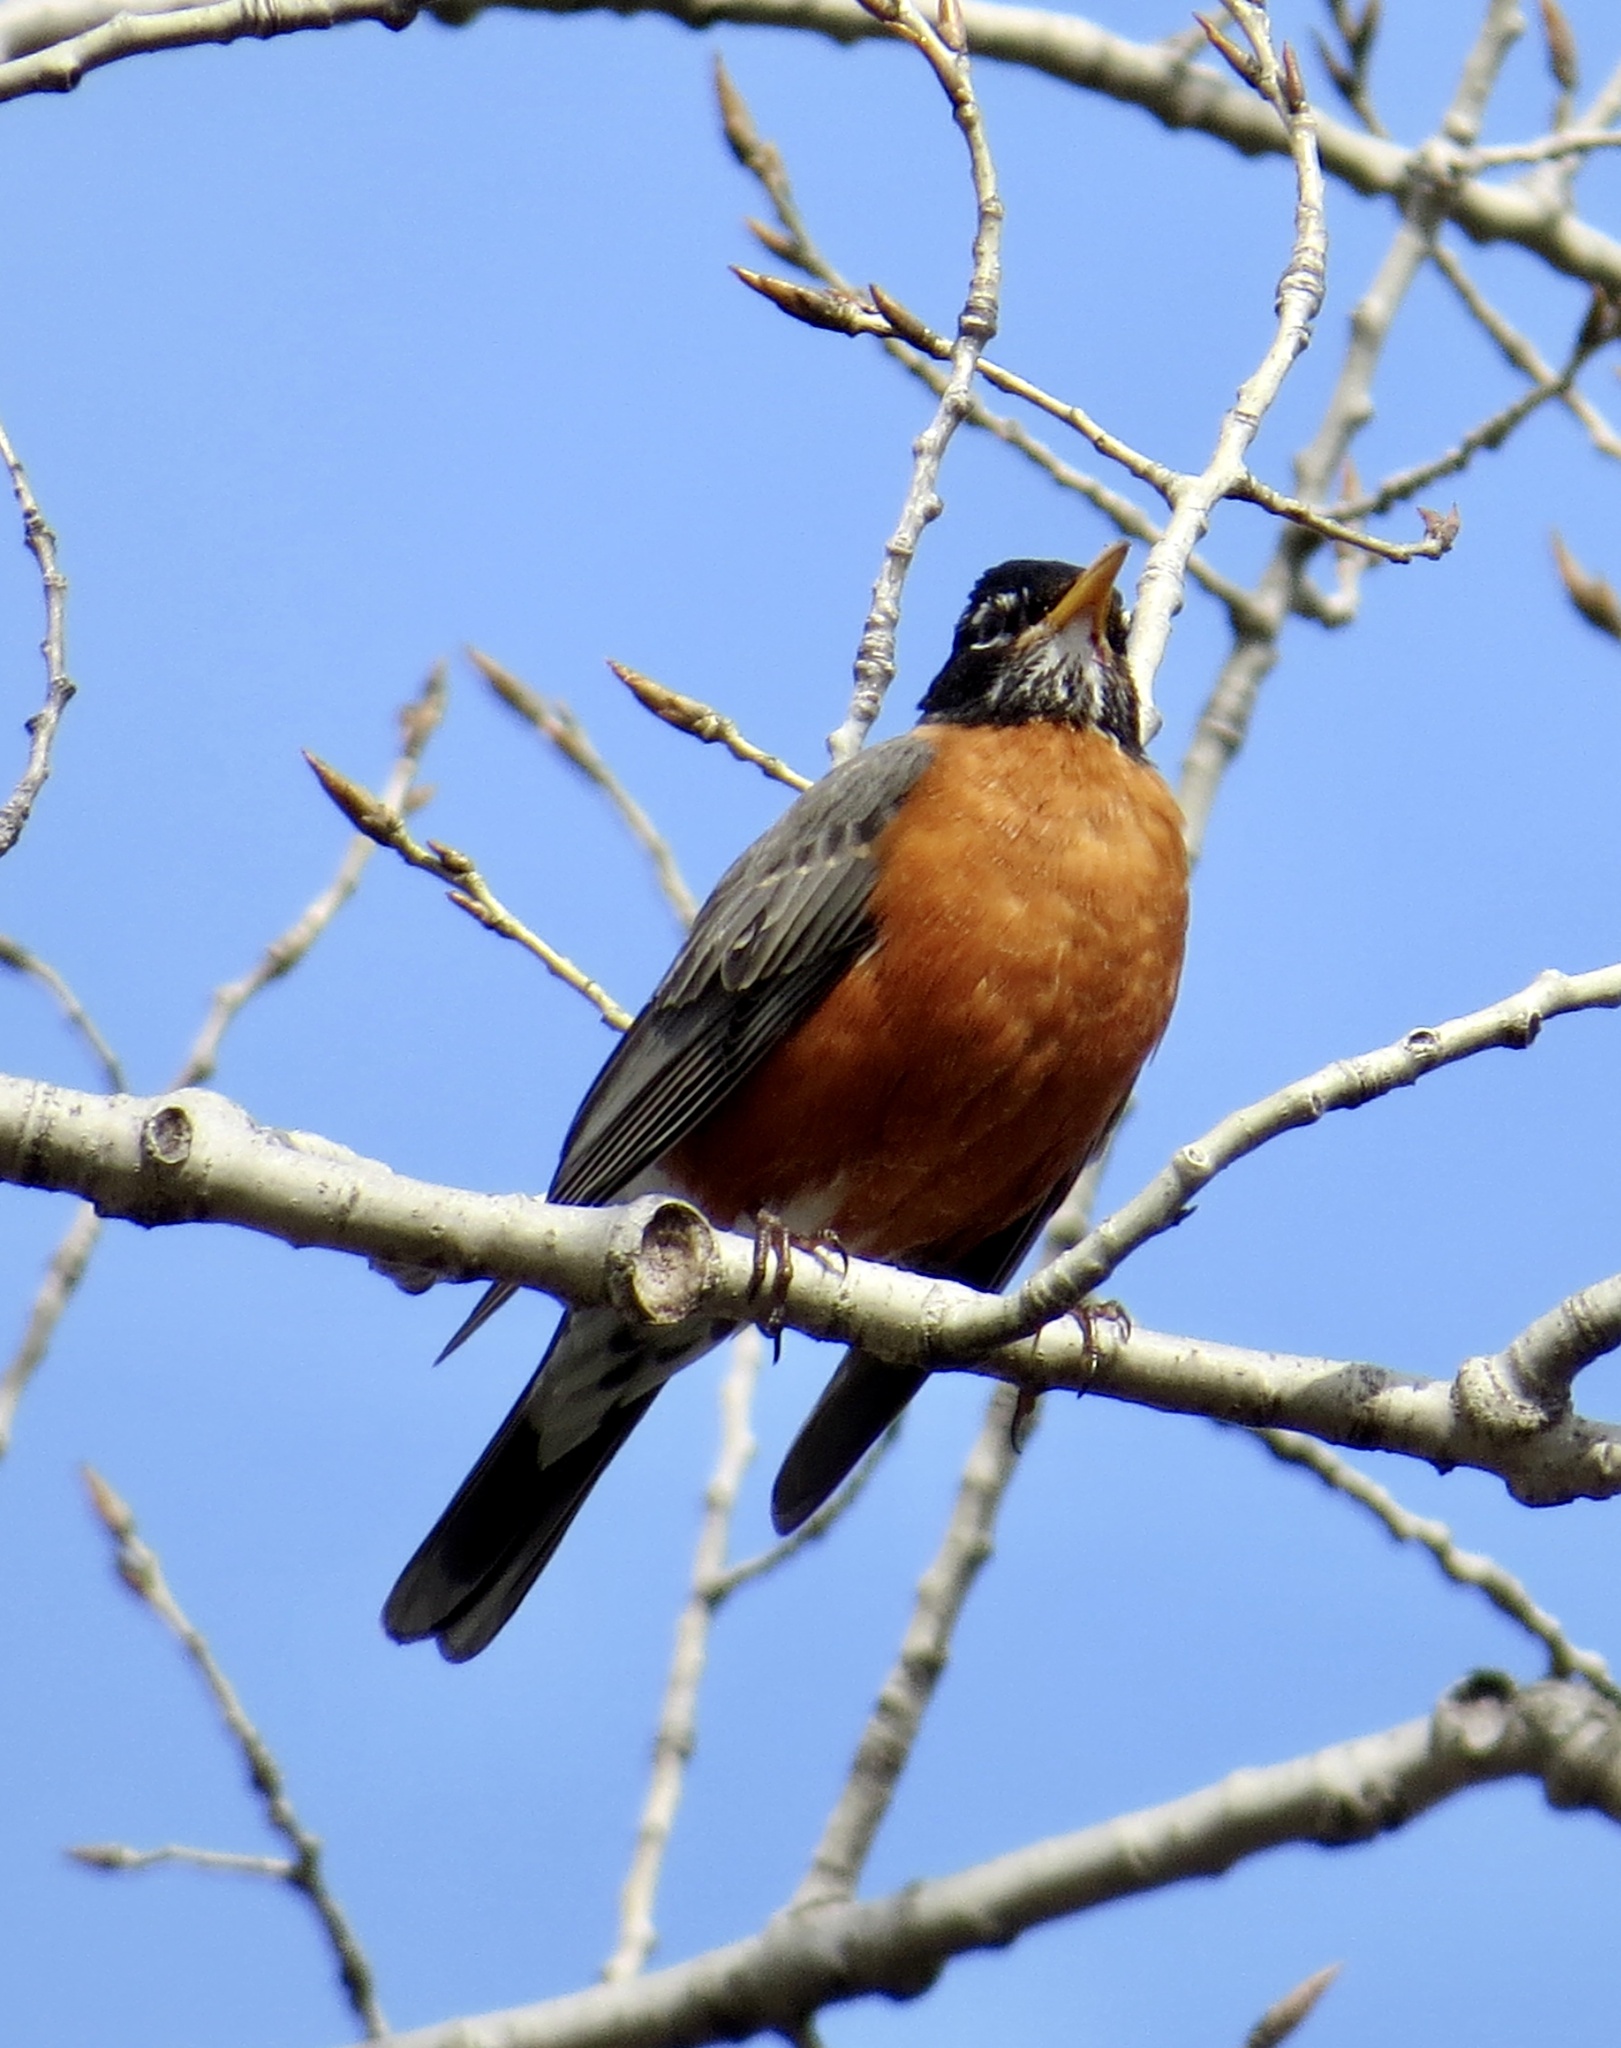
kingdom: Animalia
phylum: Chordata
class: Aves
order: Passeriformes
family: Turdidae
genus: Turdus
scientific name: Turdus migratorius
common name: American robin
